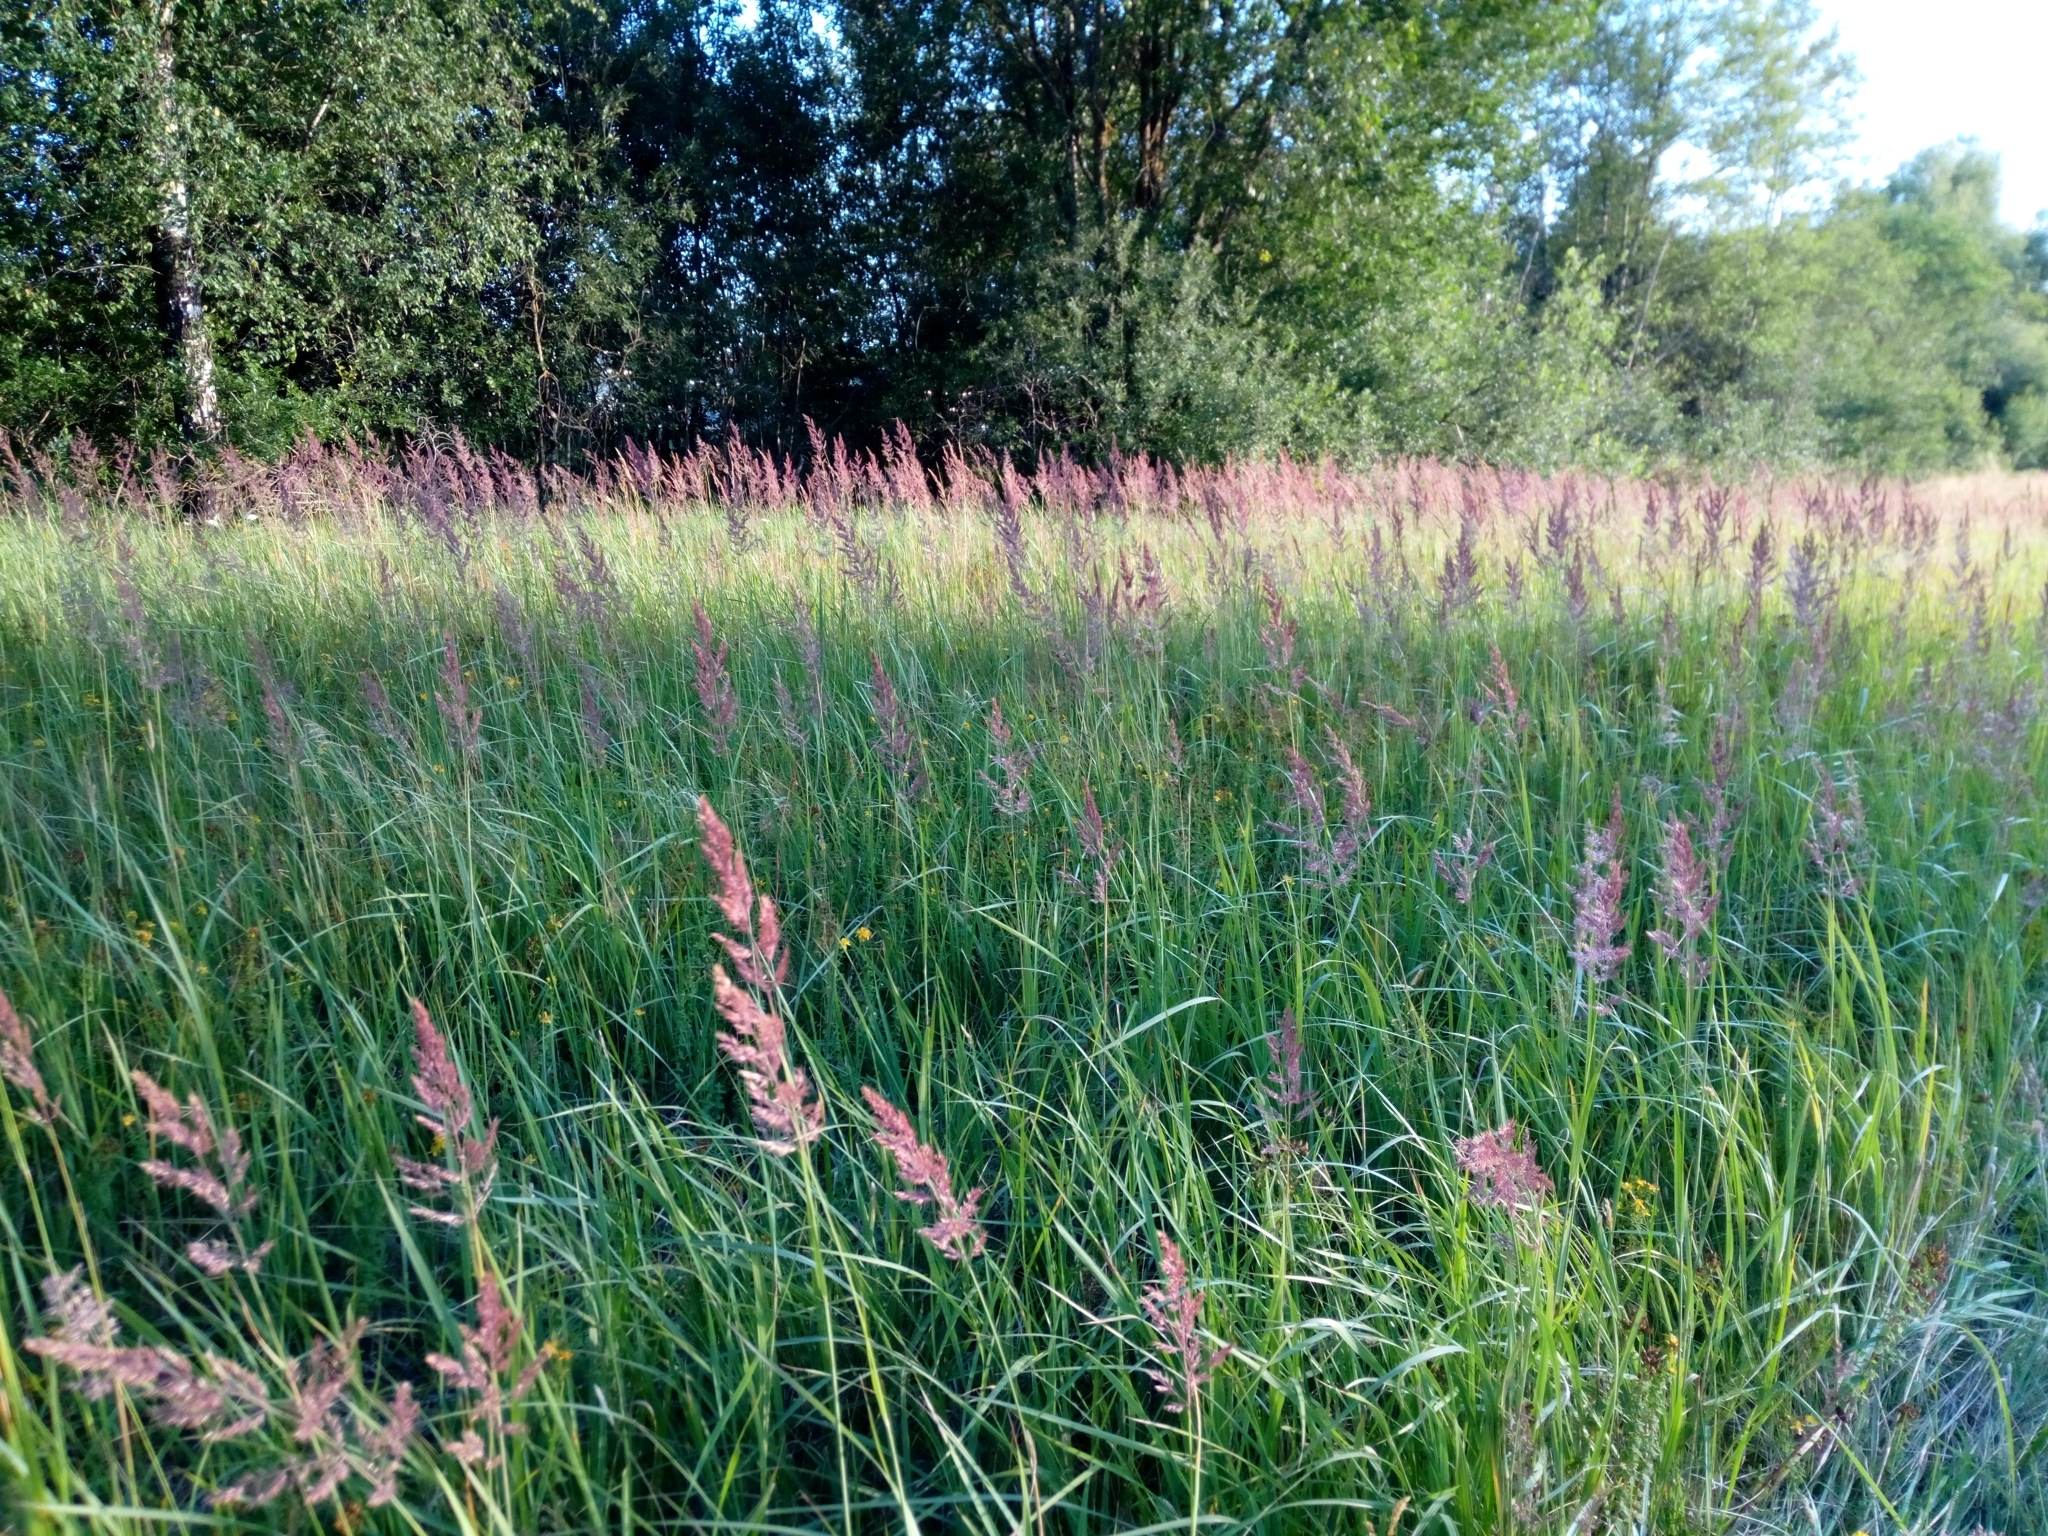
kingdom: Plantae
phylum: Tracheophyta
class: Liliopsida
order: Poales
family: Poaceae
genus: Calamagrostis
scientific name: Calamagrostis epigejos
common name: Wood small-reed
